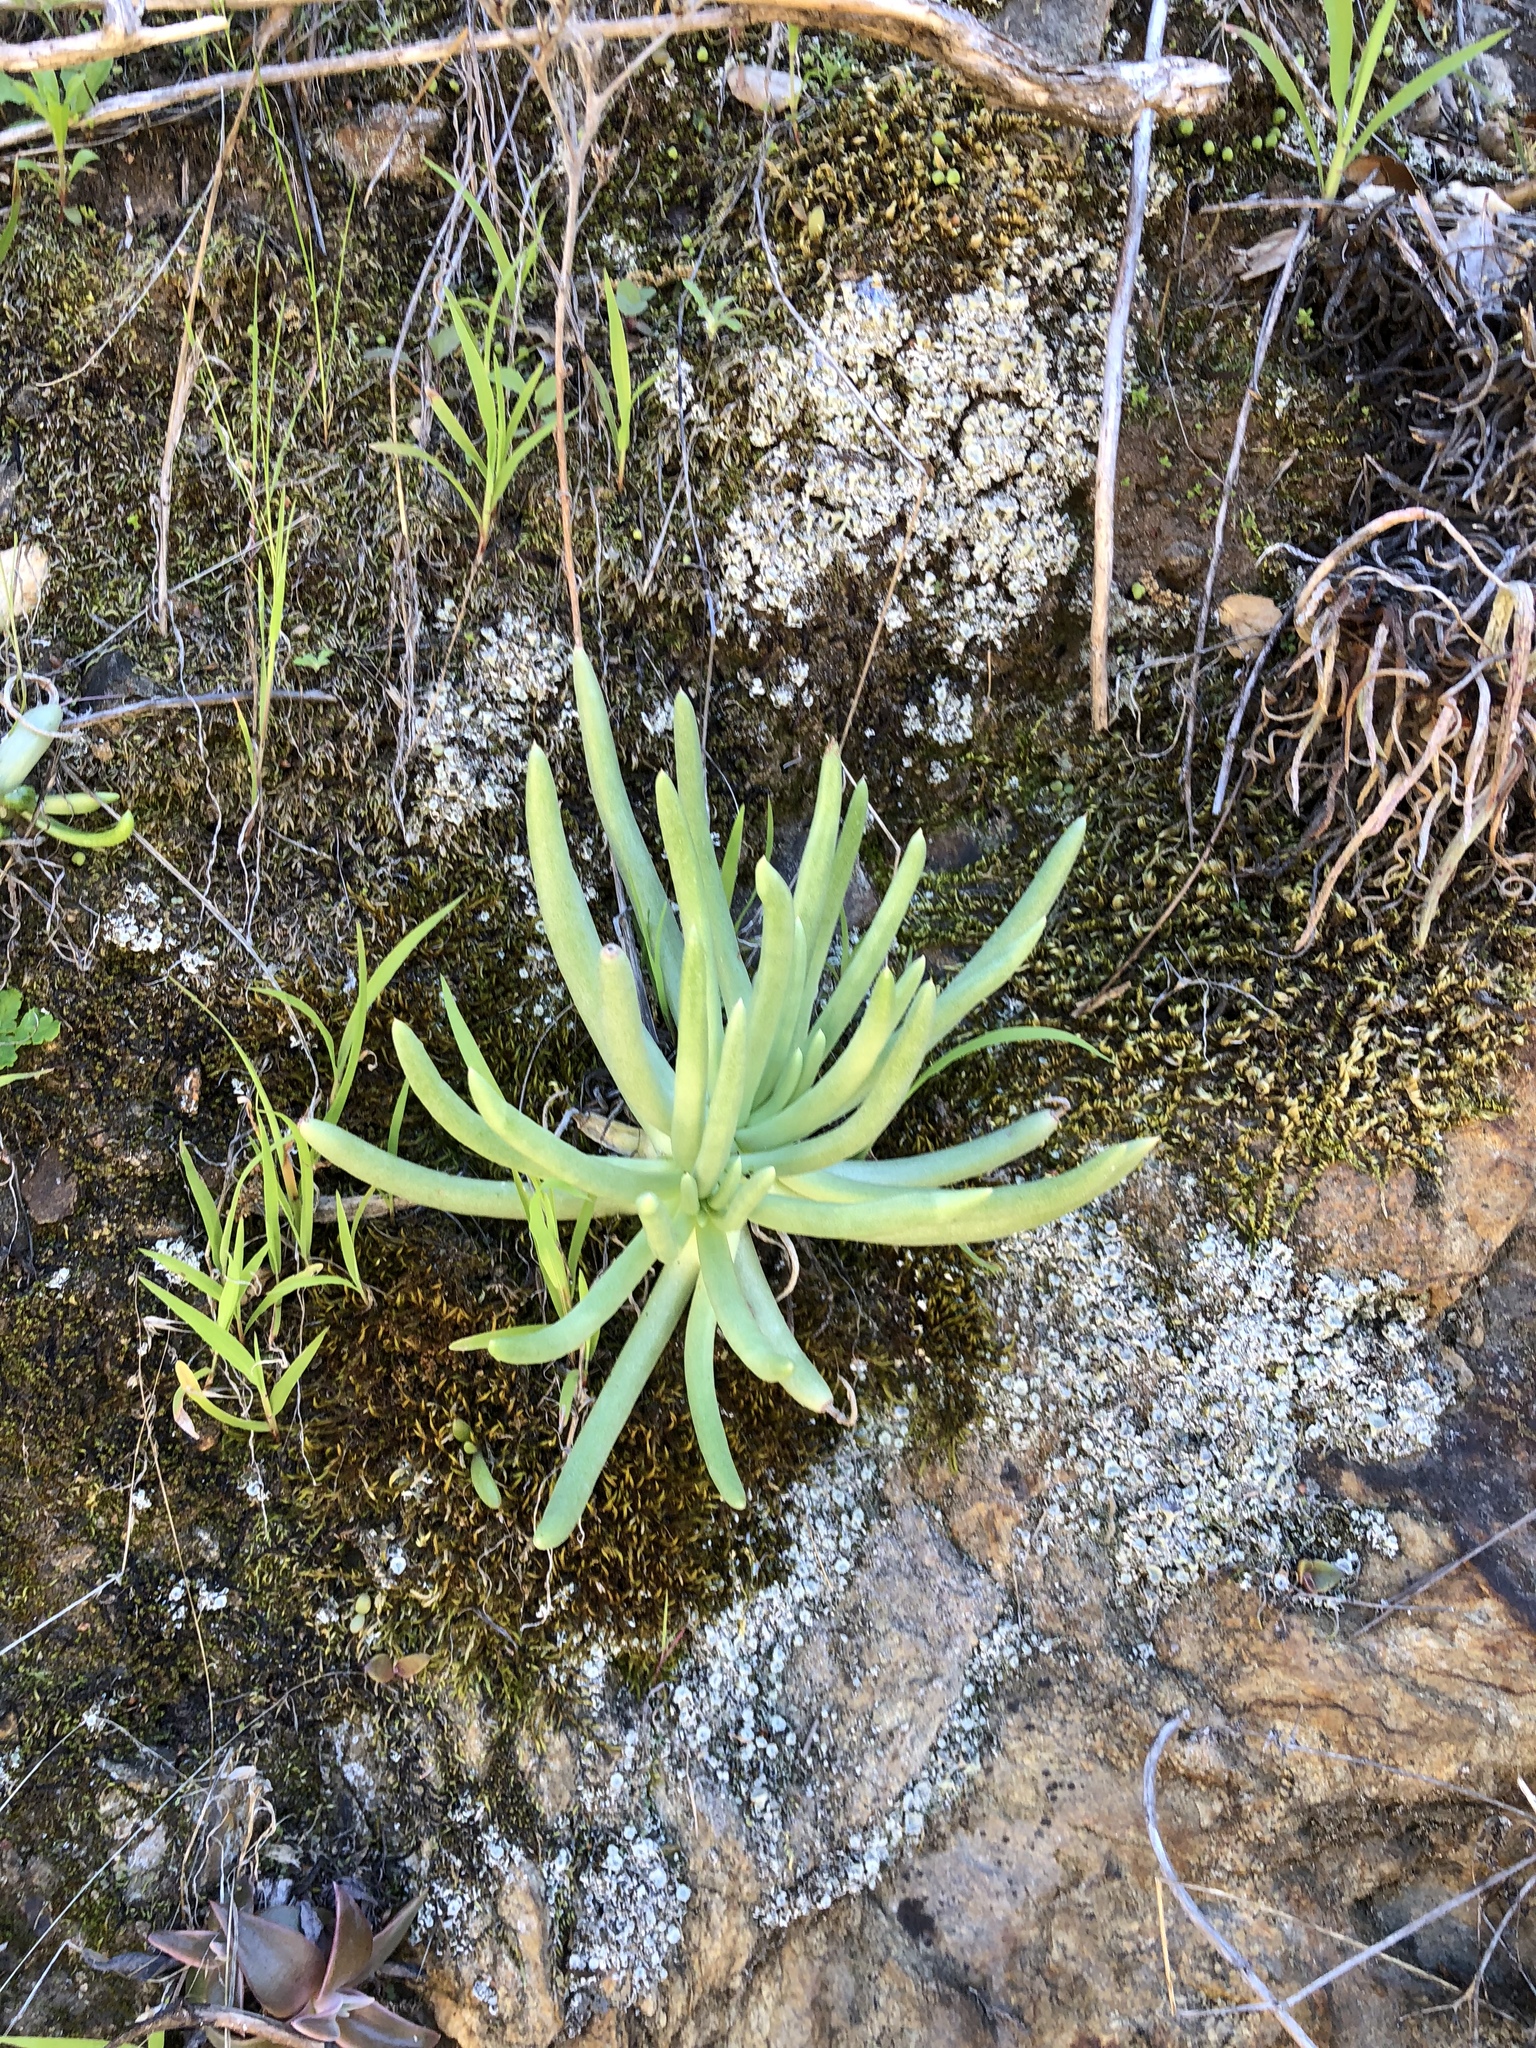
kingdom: Plantae
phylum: Tracheophyta
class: Magnoliopsida
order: Saxifragales
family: Crassulaceae
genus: Dudleya
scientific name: Dudleya edulis
